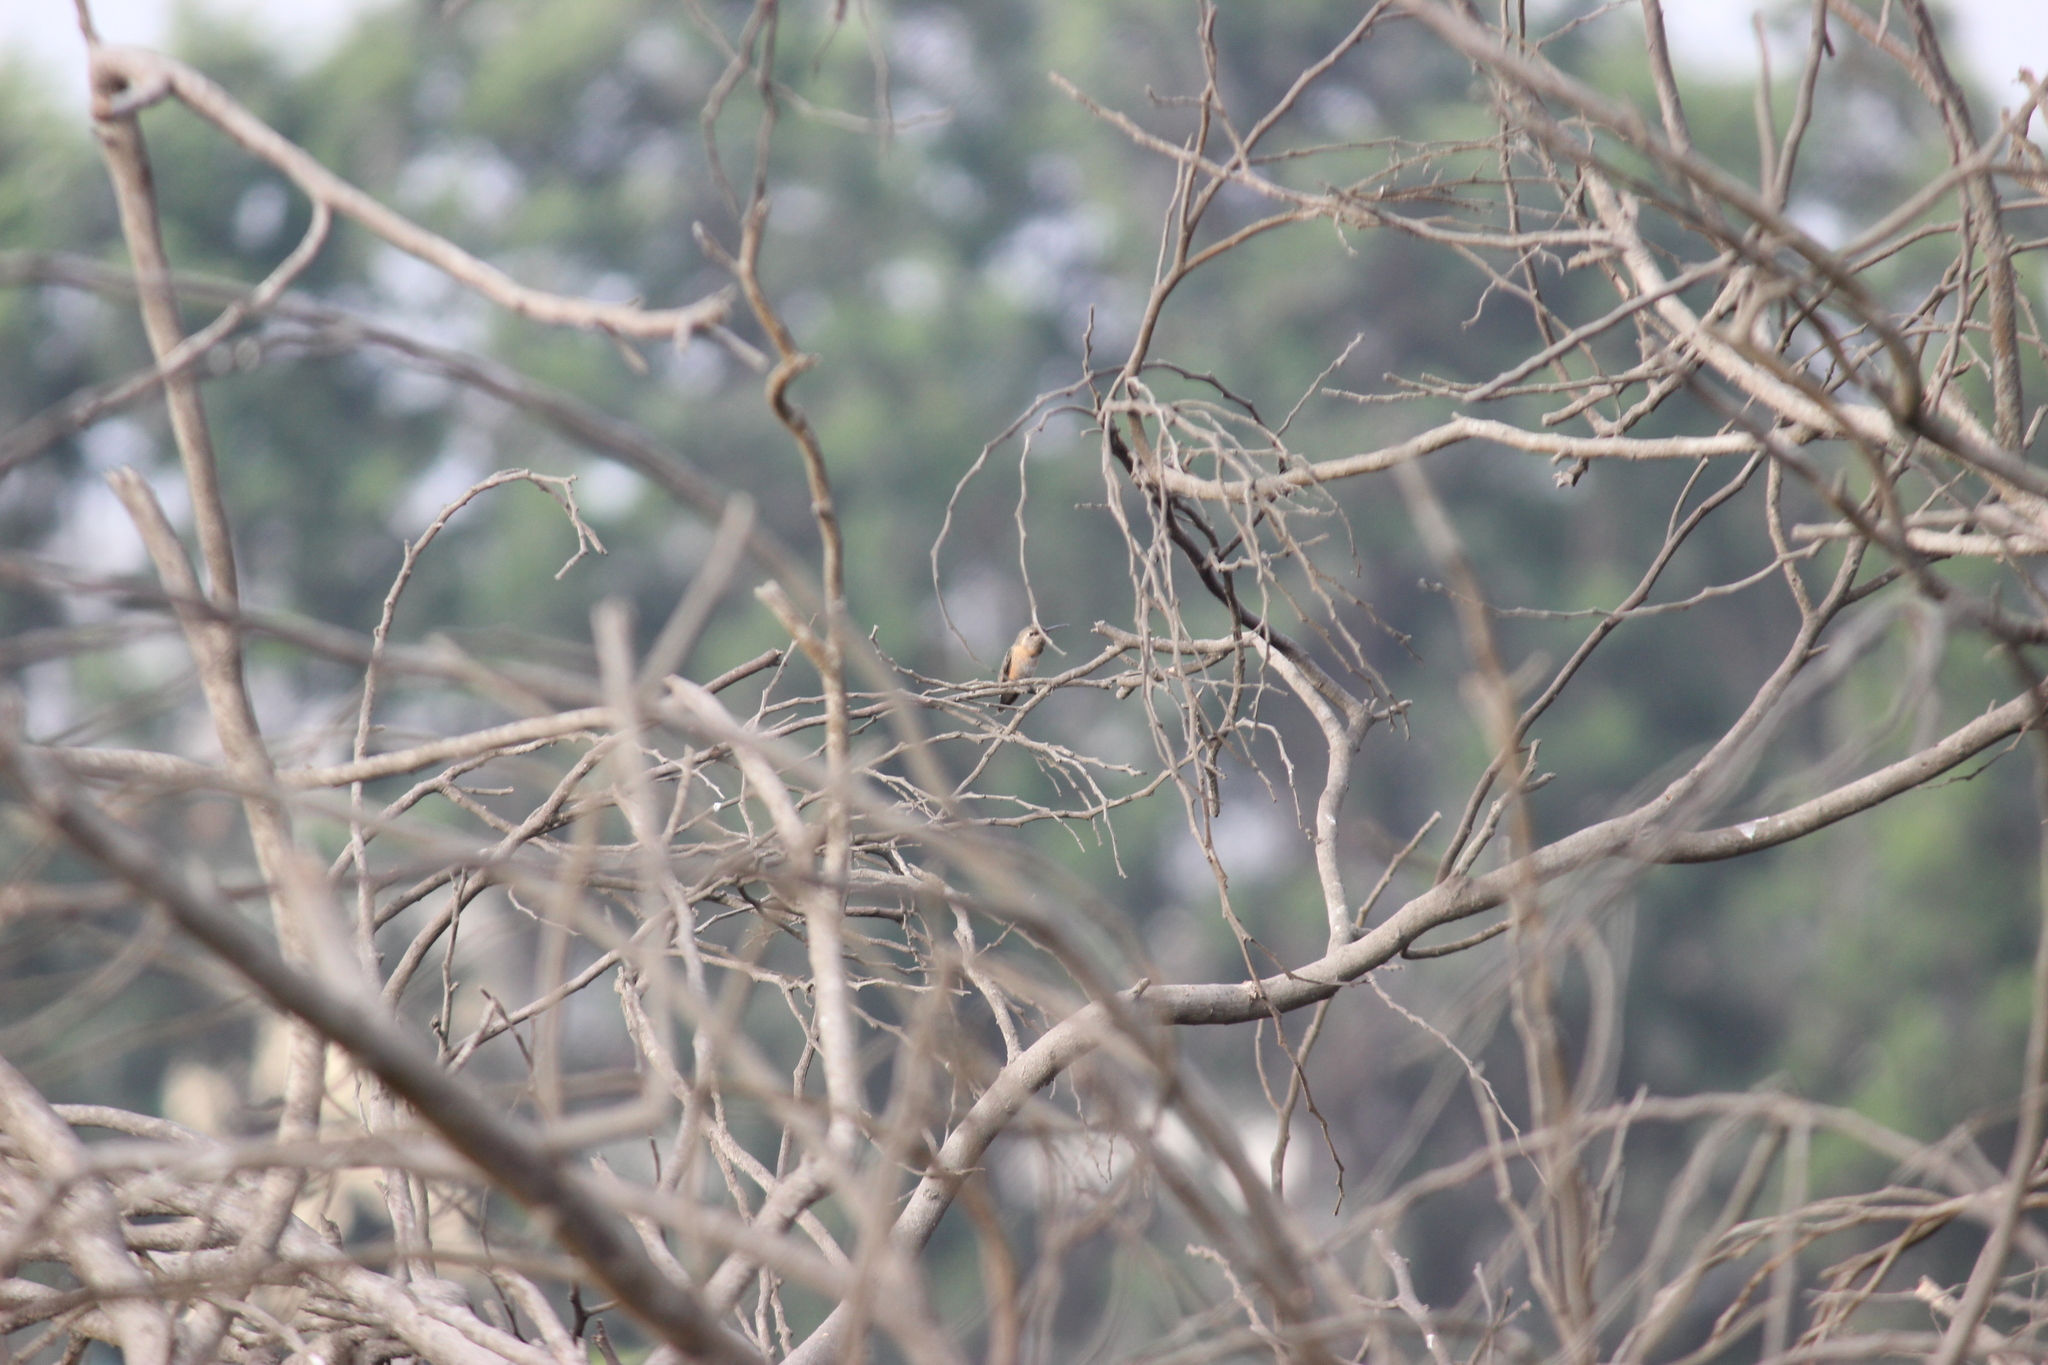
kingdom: Animalia
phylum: Chordata
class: Aves
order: Apodiformes
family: Trochilidae
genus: Myrtis
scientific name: Myrtis fanny
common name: Purple-collared woodstar
